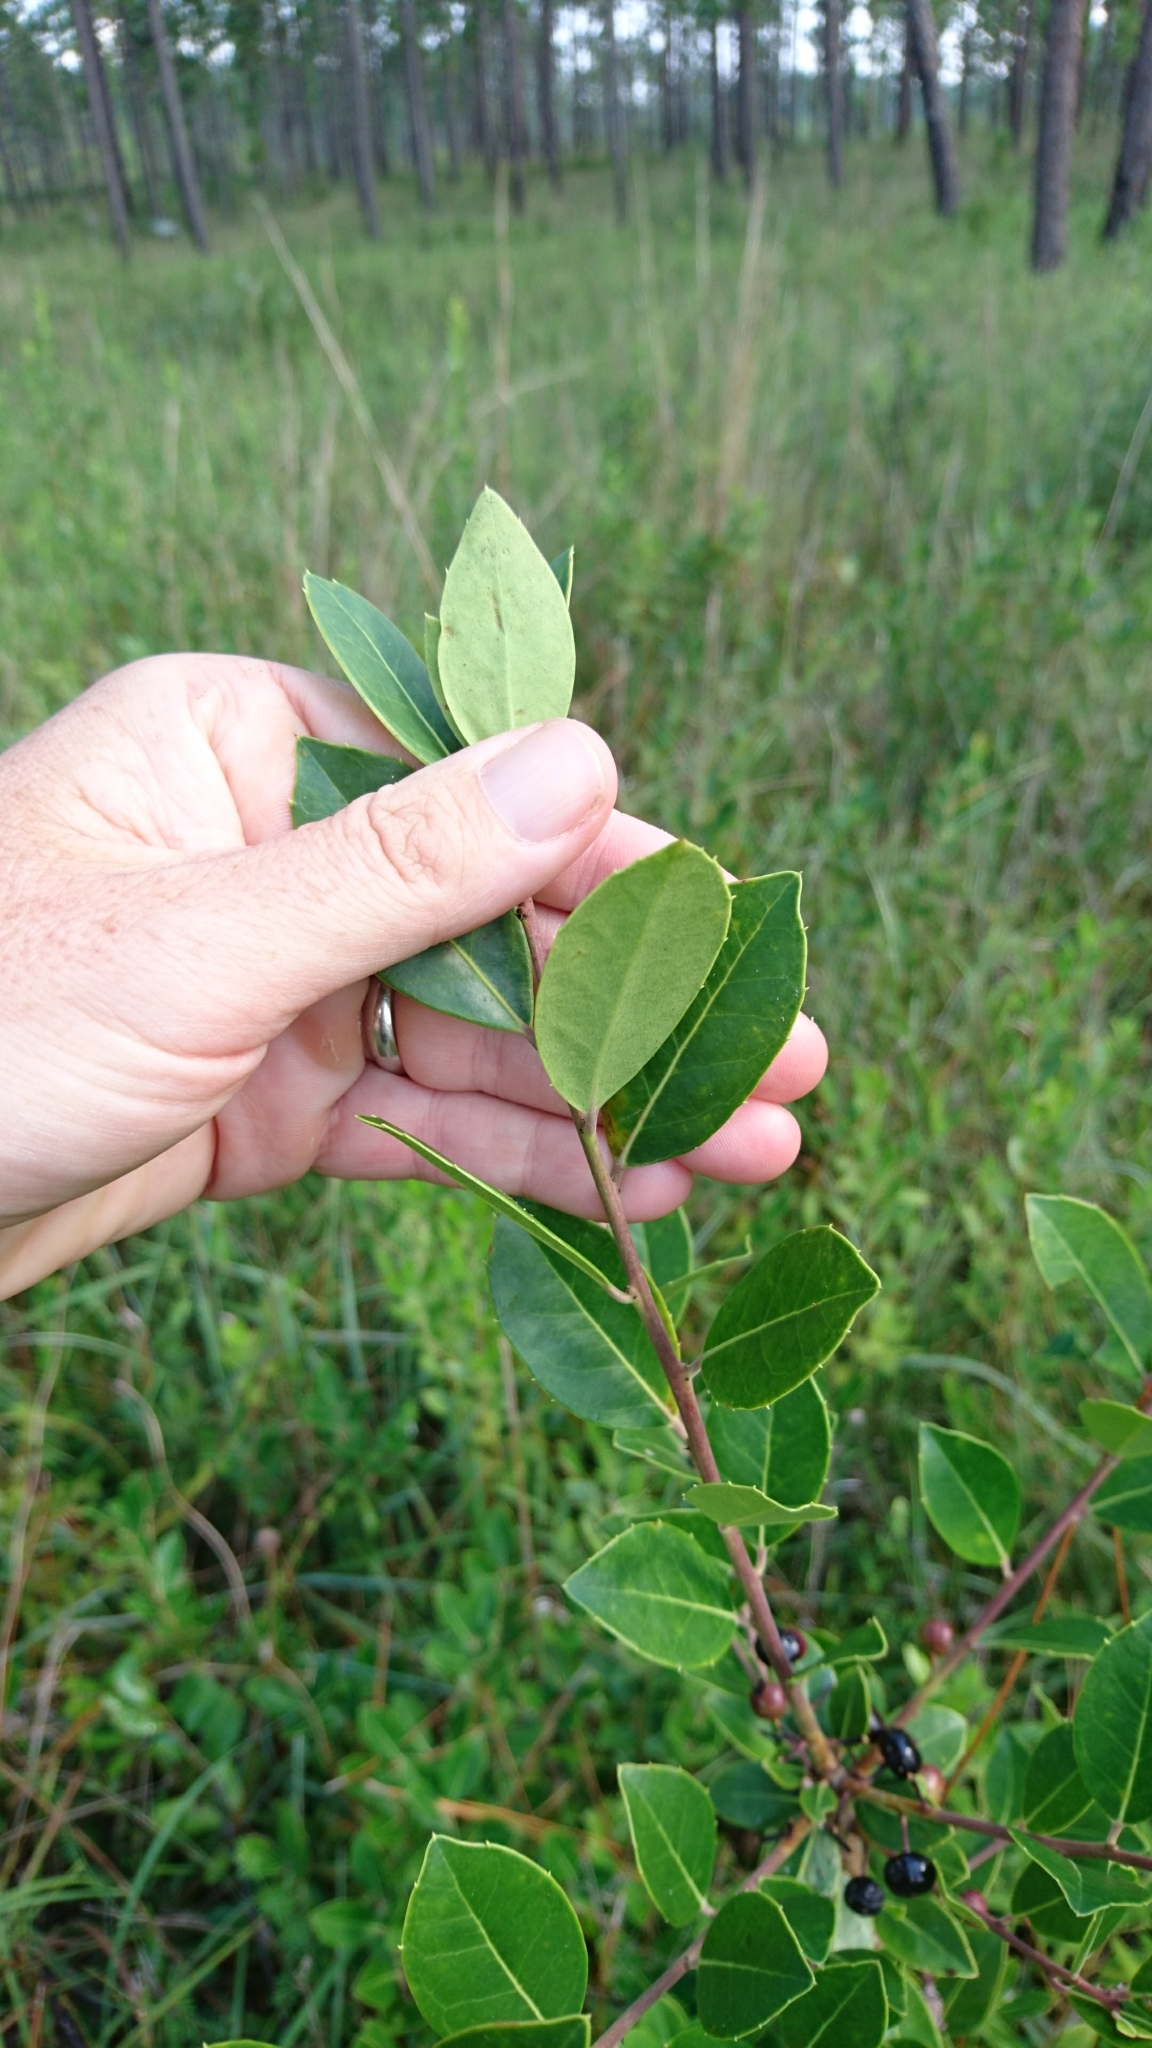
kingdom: Plantae
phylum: Tracheophyta
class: Magnoliopsida
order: Aquifoliales
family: Aquifoliaceae
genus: Ilex
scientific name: Ilex coriacea
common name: Sweet gallberry
